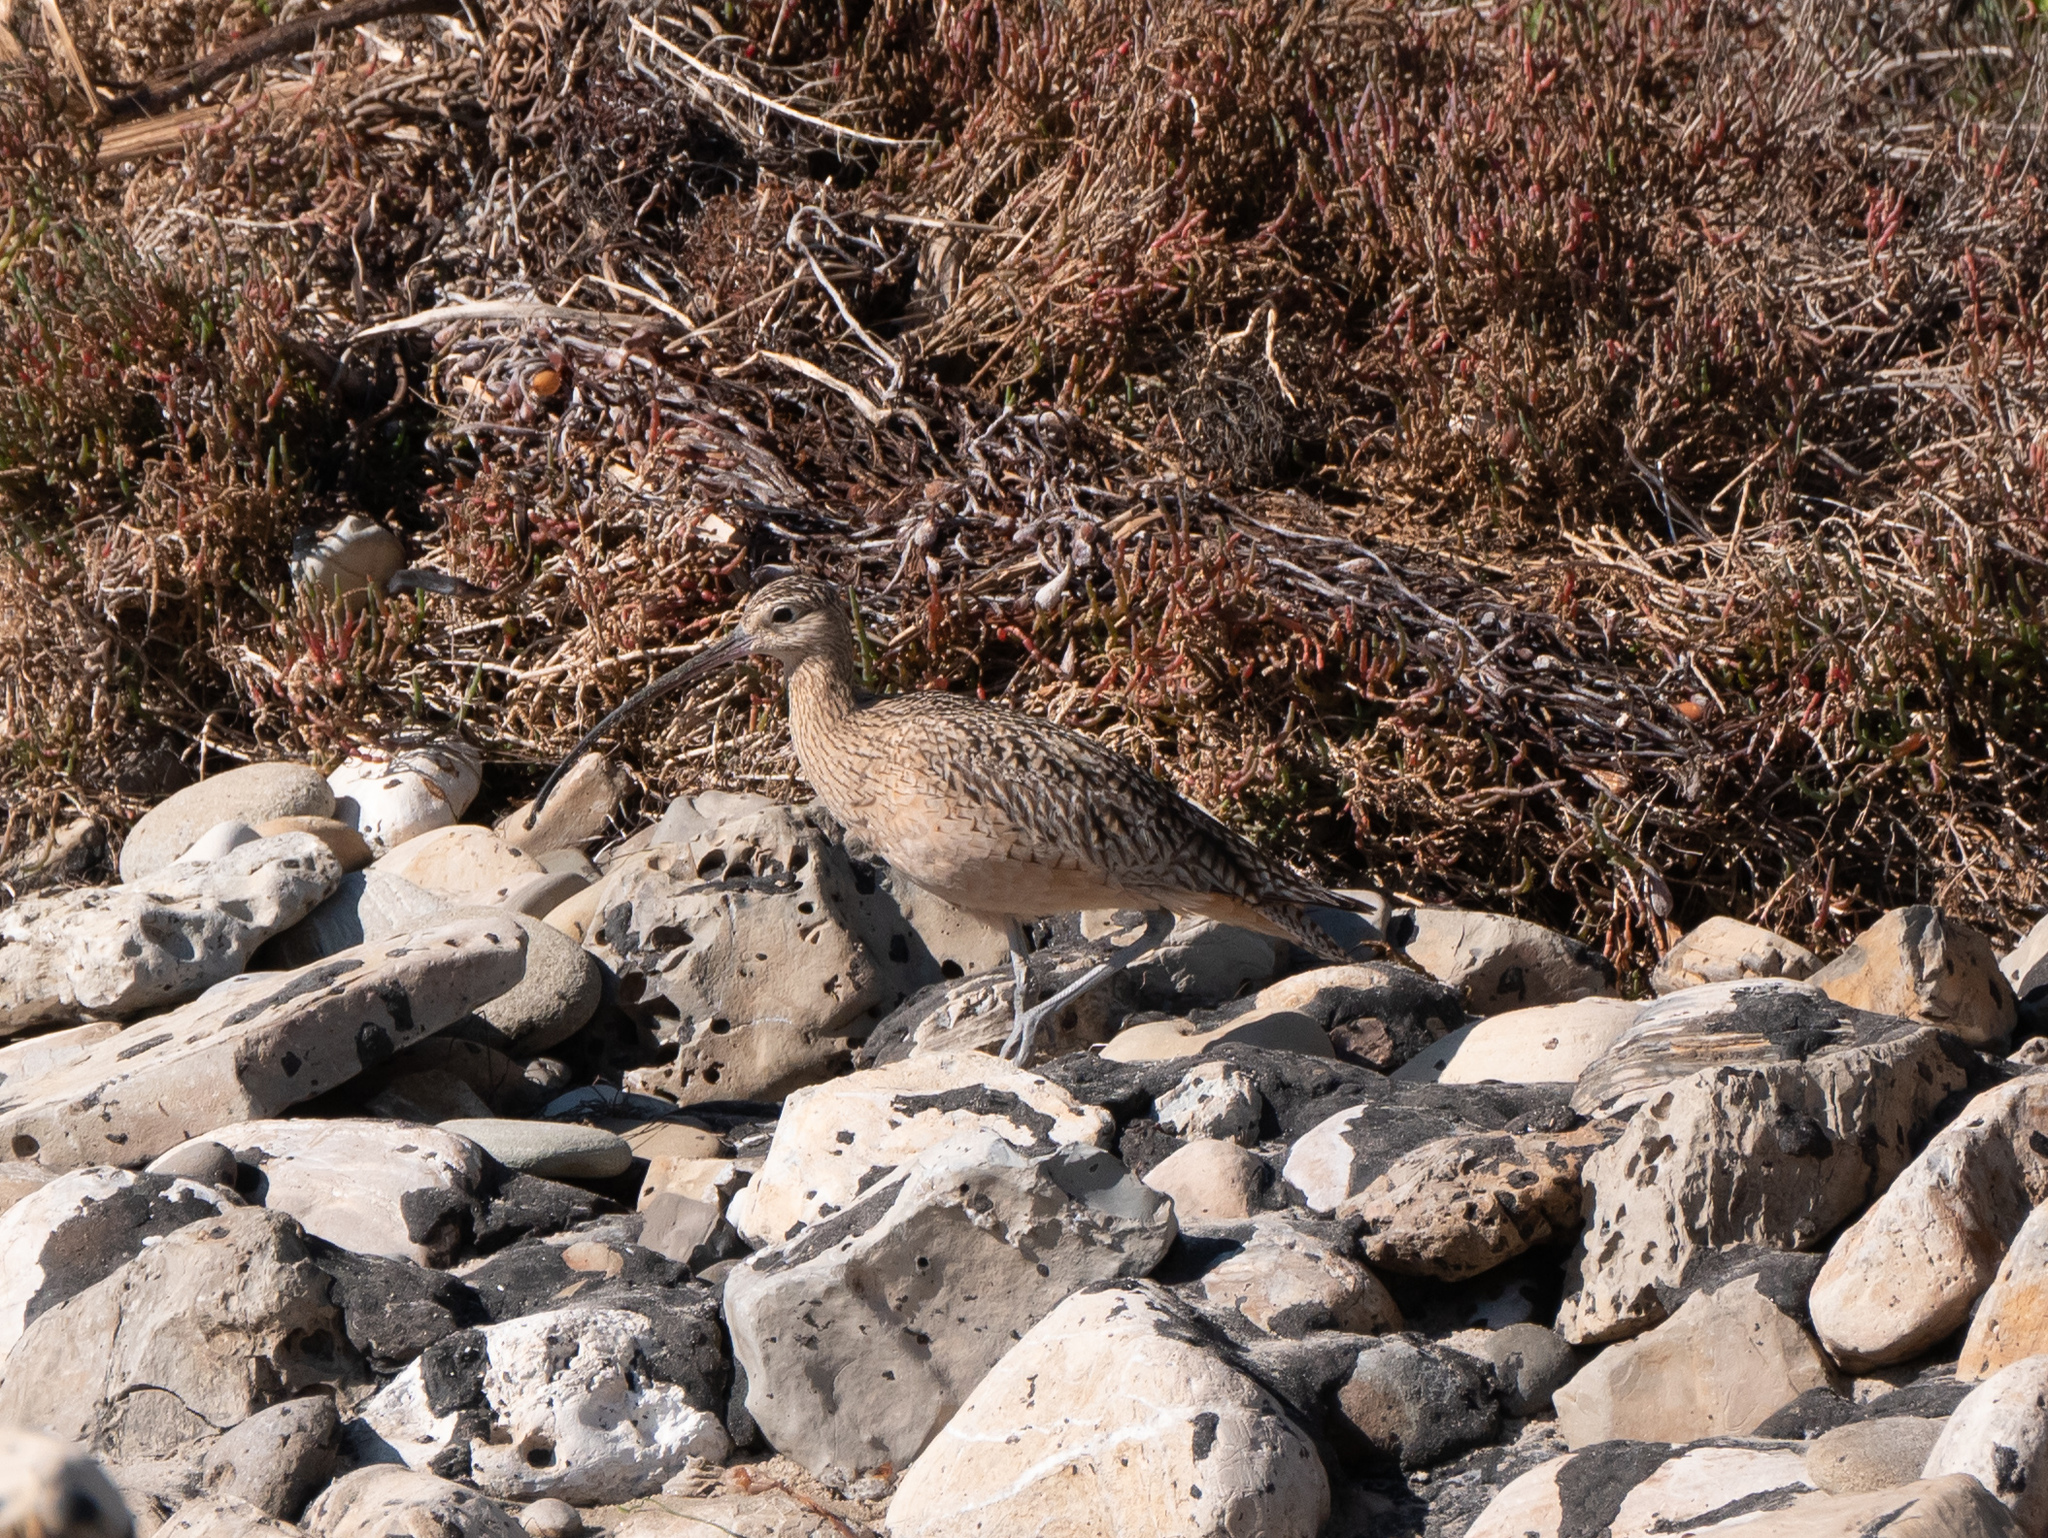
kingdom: Animalia
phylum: Chordata
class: Aves
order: Charadriiformes
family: Scolopacidae
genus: Numenius
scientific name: Numenius americanus
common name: Long-billed curlew
